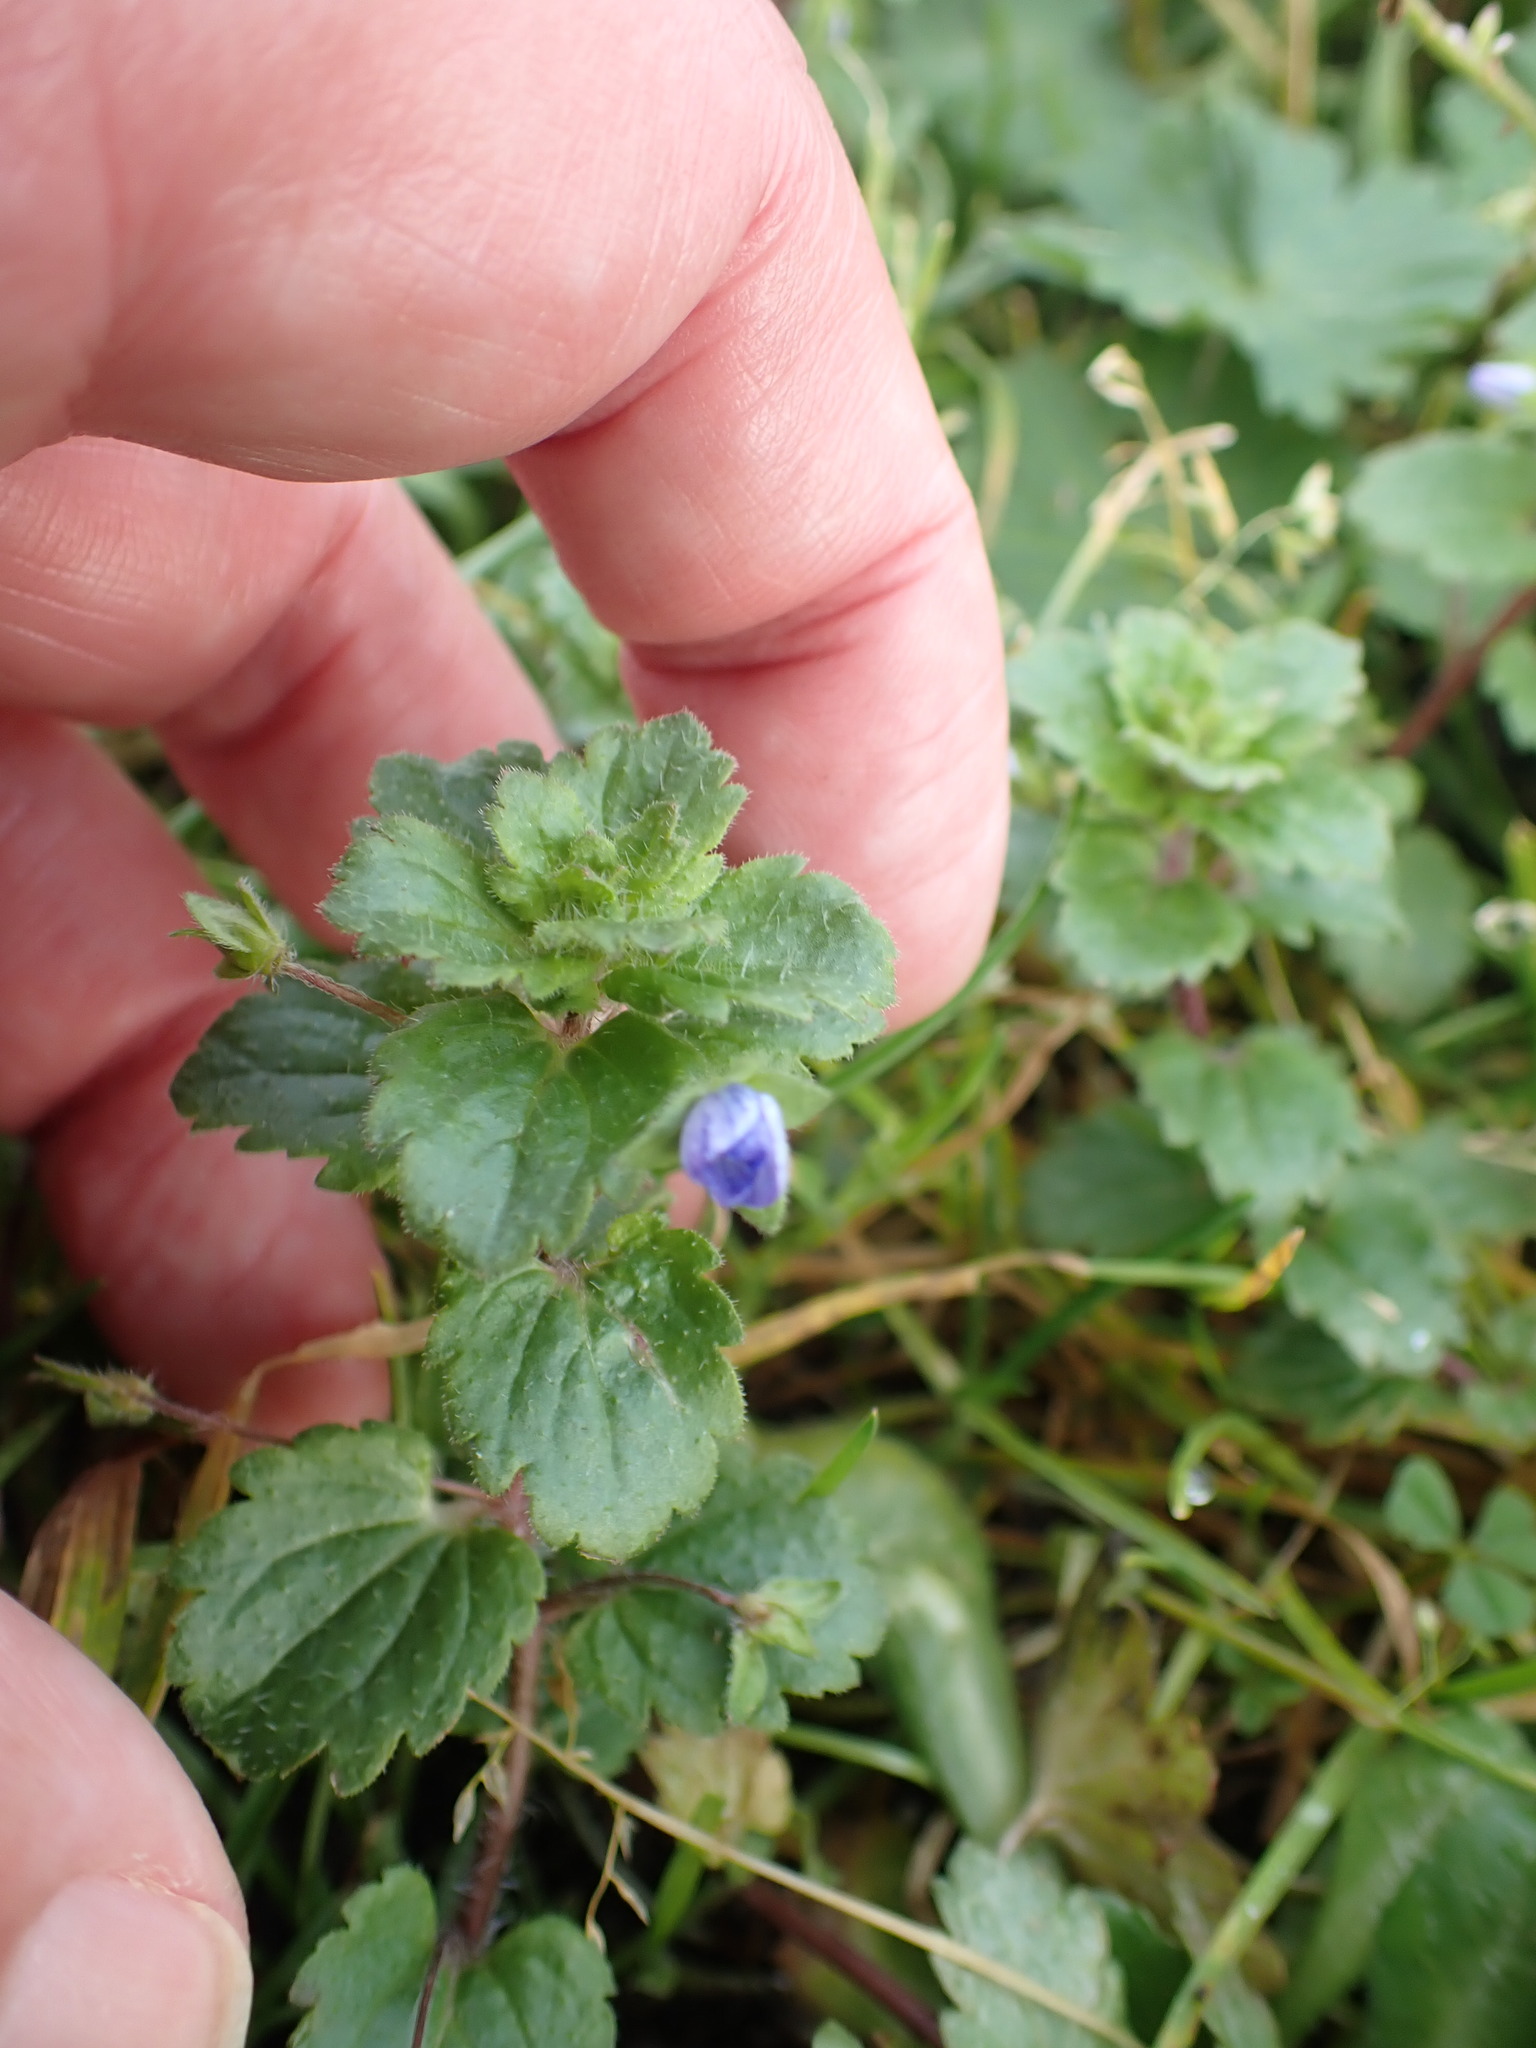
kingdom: Plantae
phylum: Tracheophyta
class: Magnoliopsida
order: Lamiales
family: Plantaginaceae
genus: Veronica
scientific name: Veronica persica
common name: Common field-speedwell
